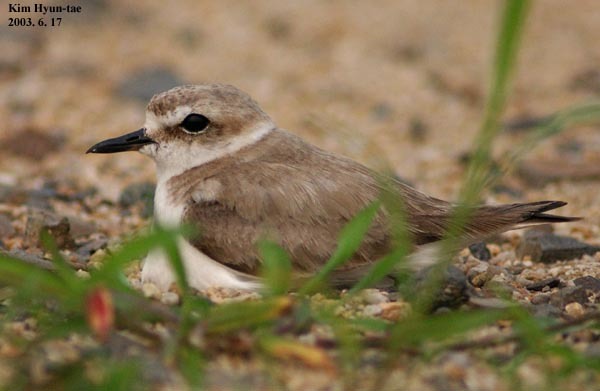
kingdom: Animalia
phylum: Chordata
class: Aves
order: Charadriiformes
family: Charadriidae
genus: Charadrius
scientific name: Charadrius alexandrinus
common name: Kentish plover
